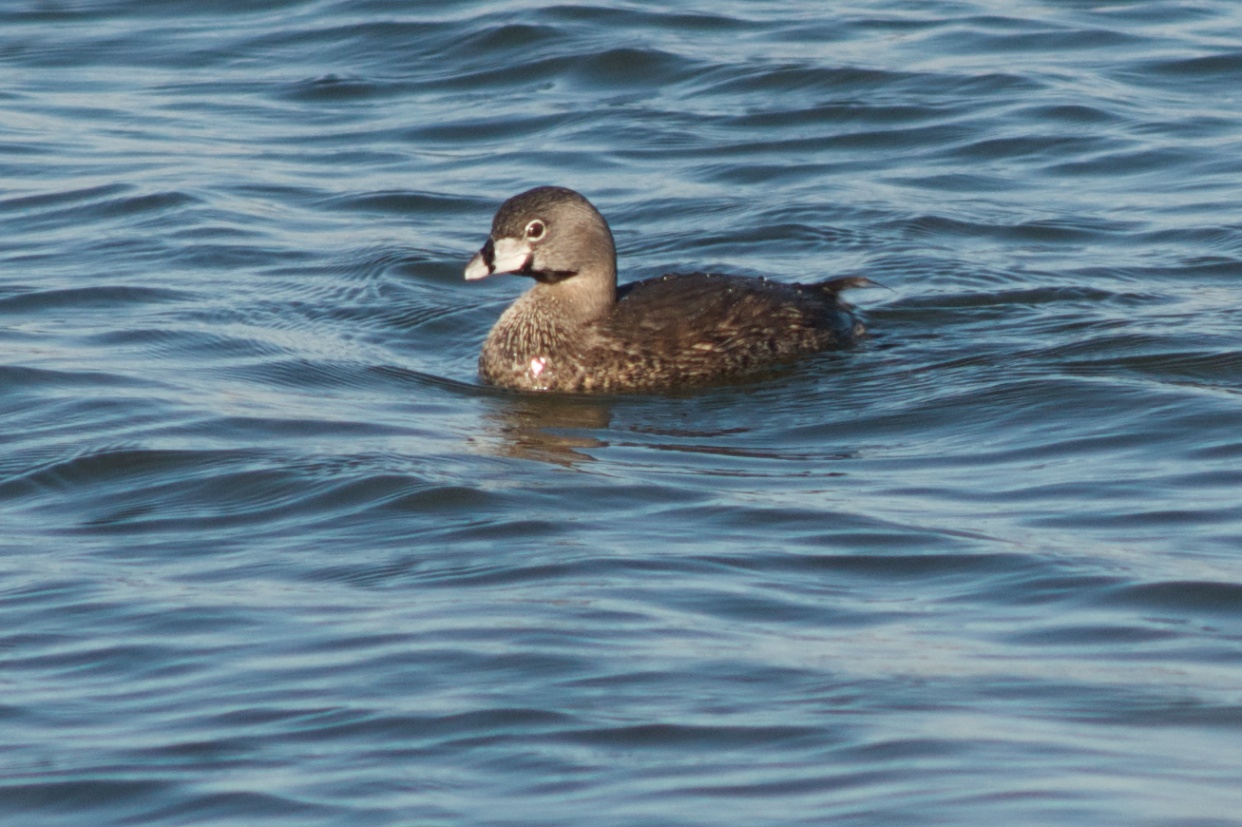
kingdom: Animalia
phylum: Chordata
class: Aves
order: Podicipediformes
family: Podicipedidae
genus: Podilymbus
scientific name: Podilymbus podiceps
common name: Pied-billed grebe
